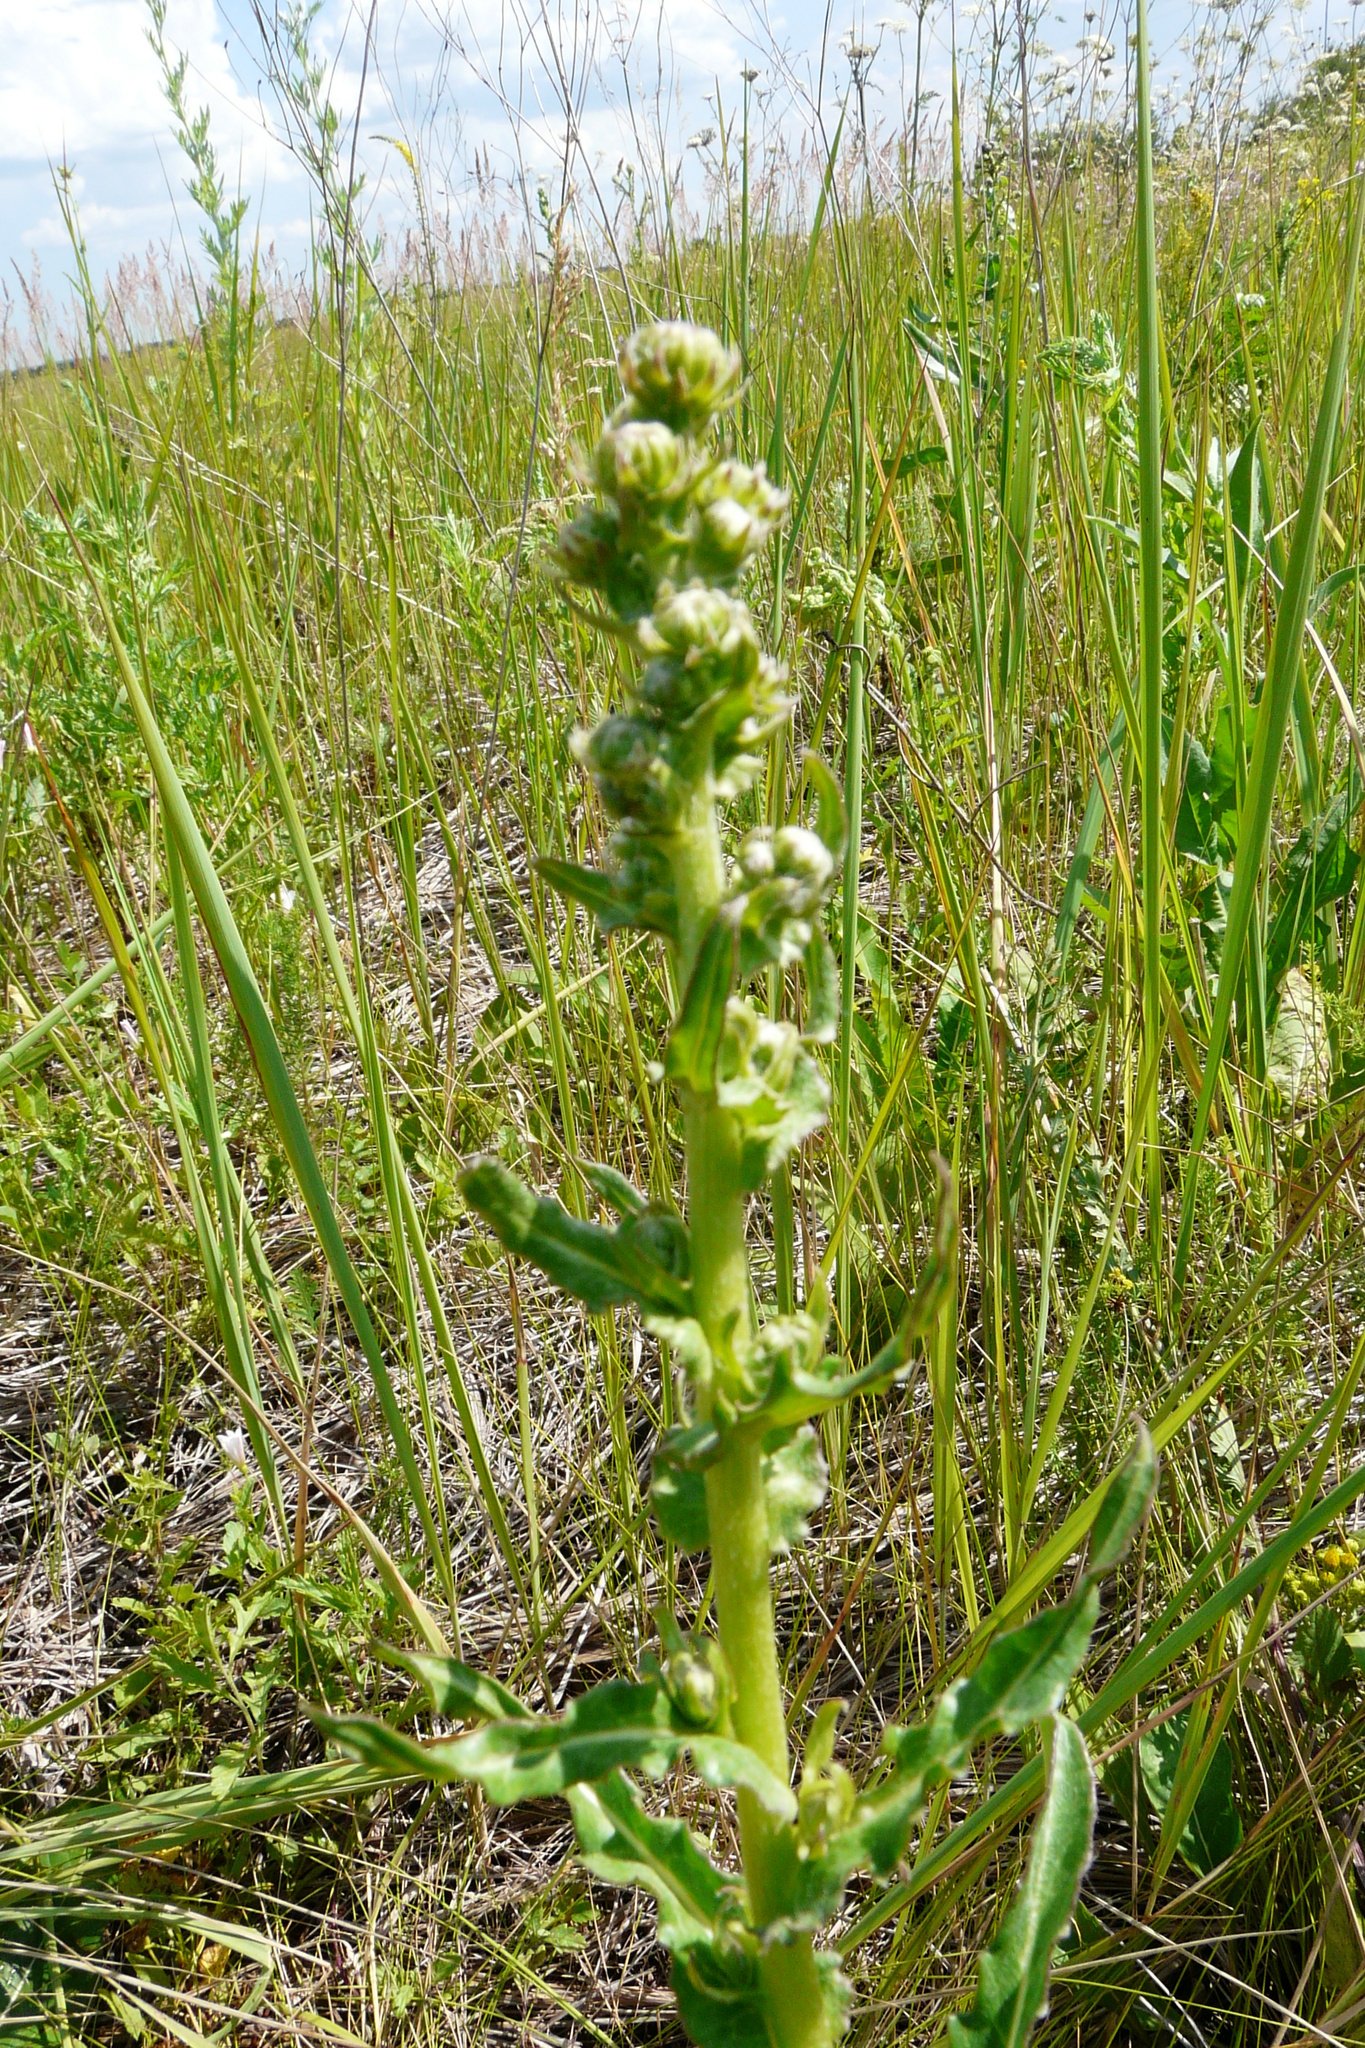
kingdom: Plantae
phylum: Tracheophyta
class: Magnoliopsida
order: Asterales
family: Asteraceae
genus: Jacobaea
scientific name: Jacobaea racemosa
